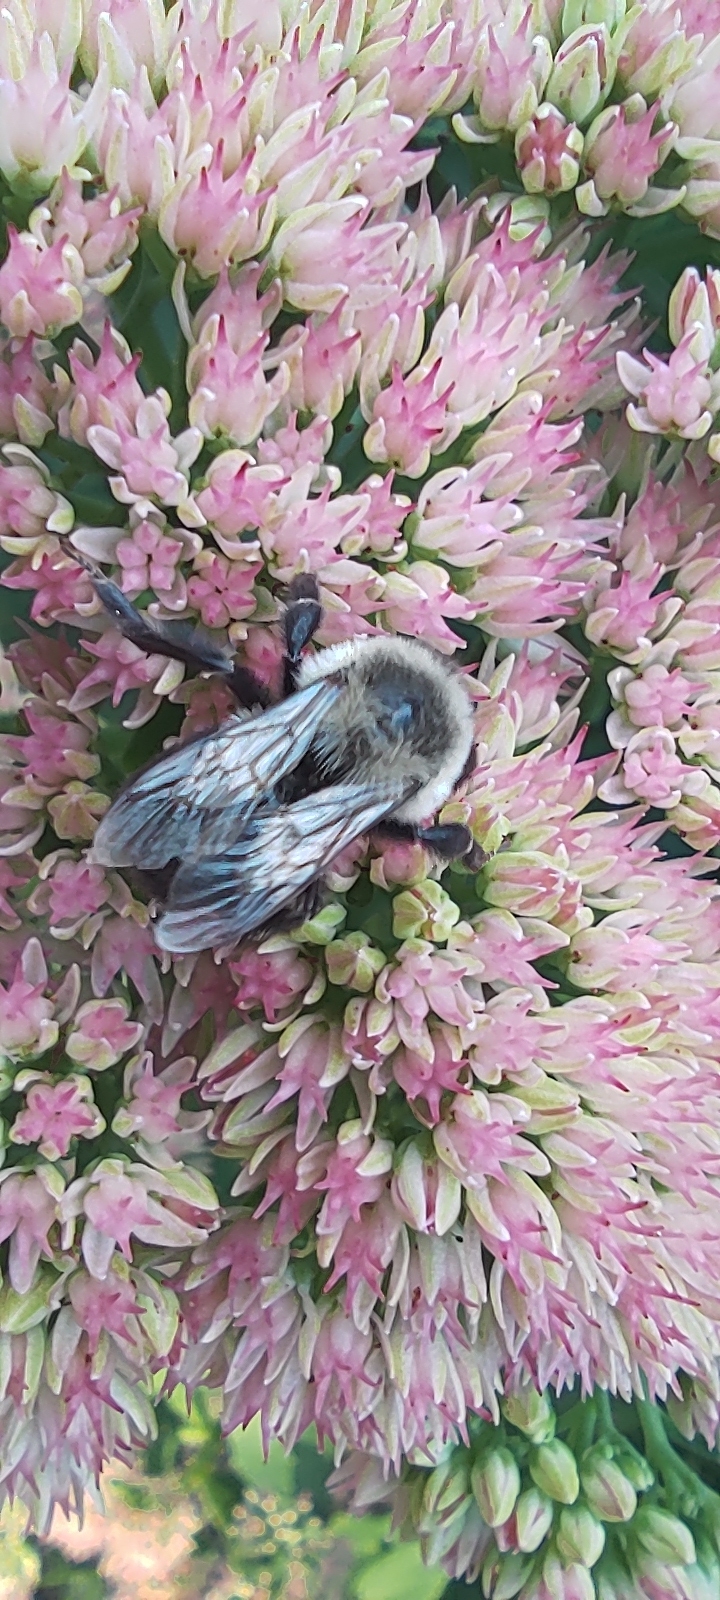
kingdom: Animalia
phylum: Arthropoda
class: Insecta
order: Hymenoptera
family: Apidae
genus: Bombus
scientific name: Bombus impatiens
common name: Common eastern bumble bee
